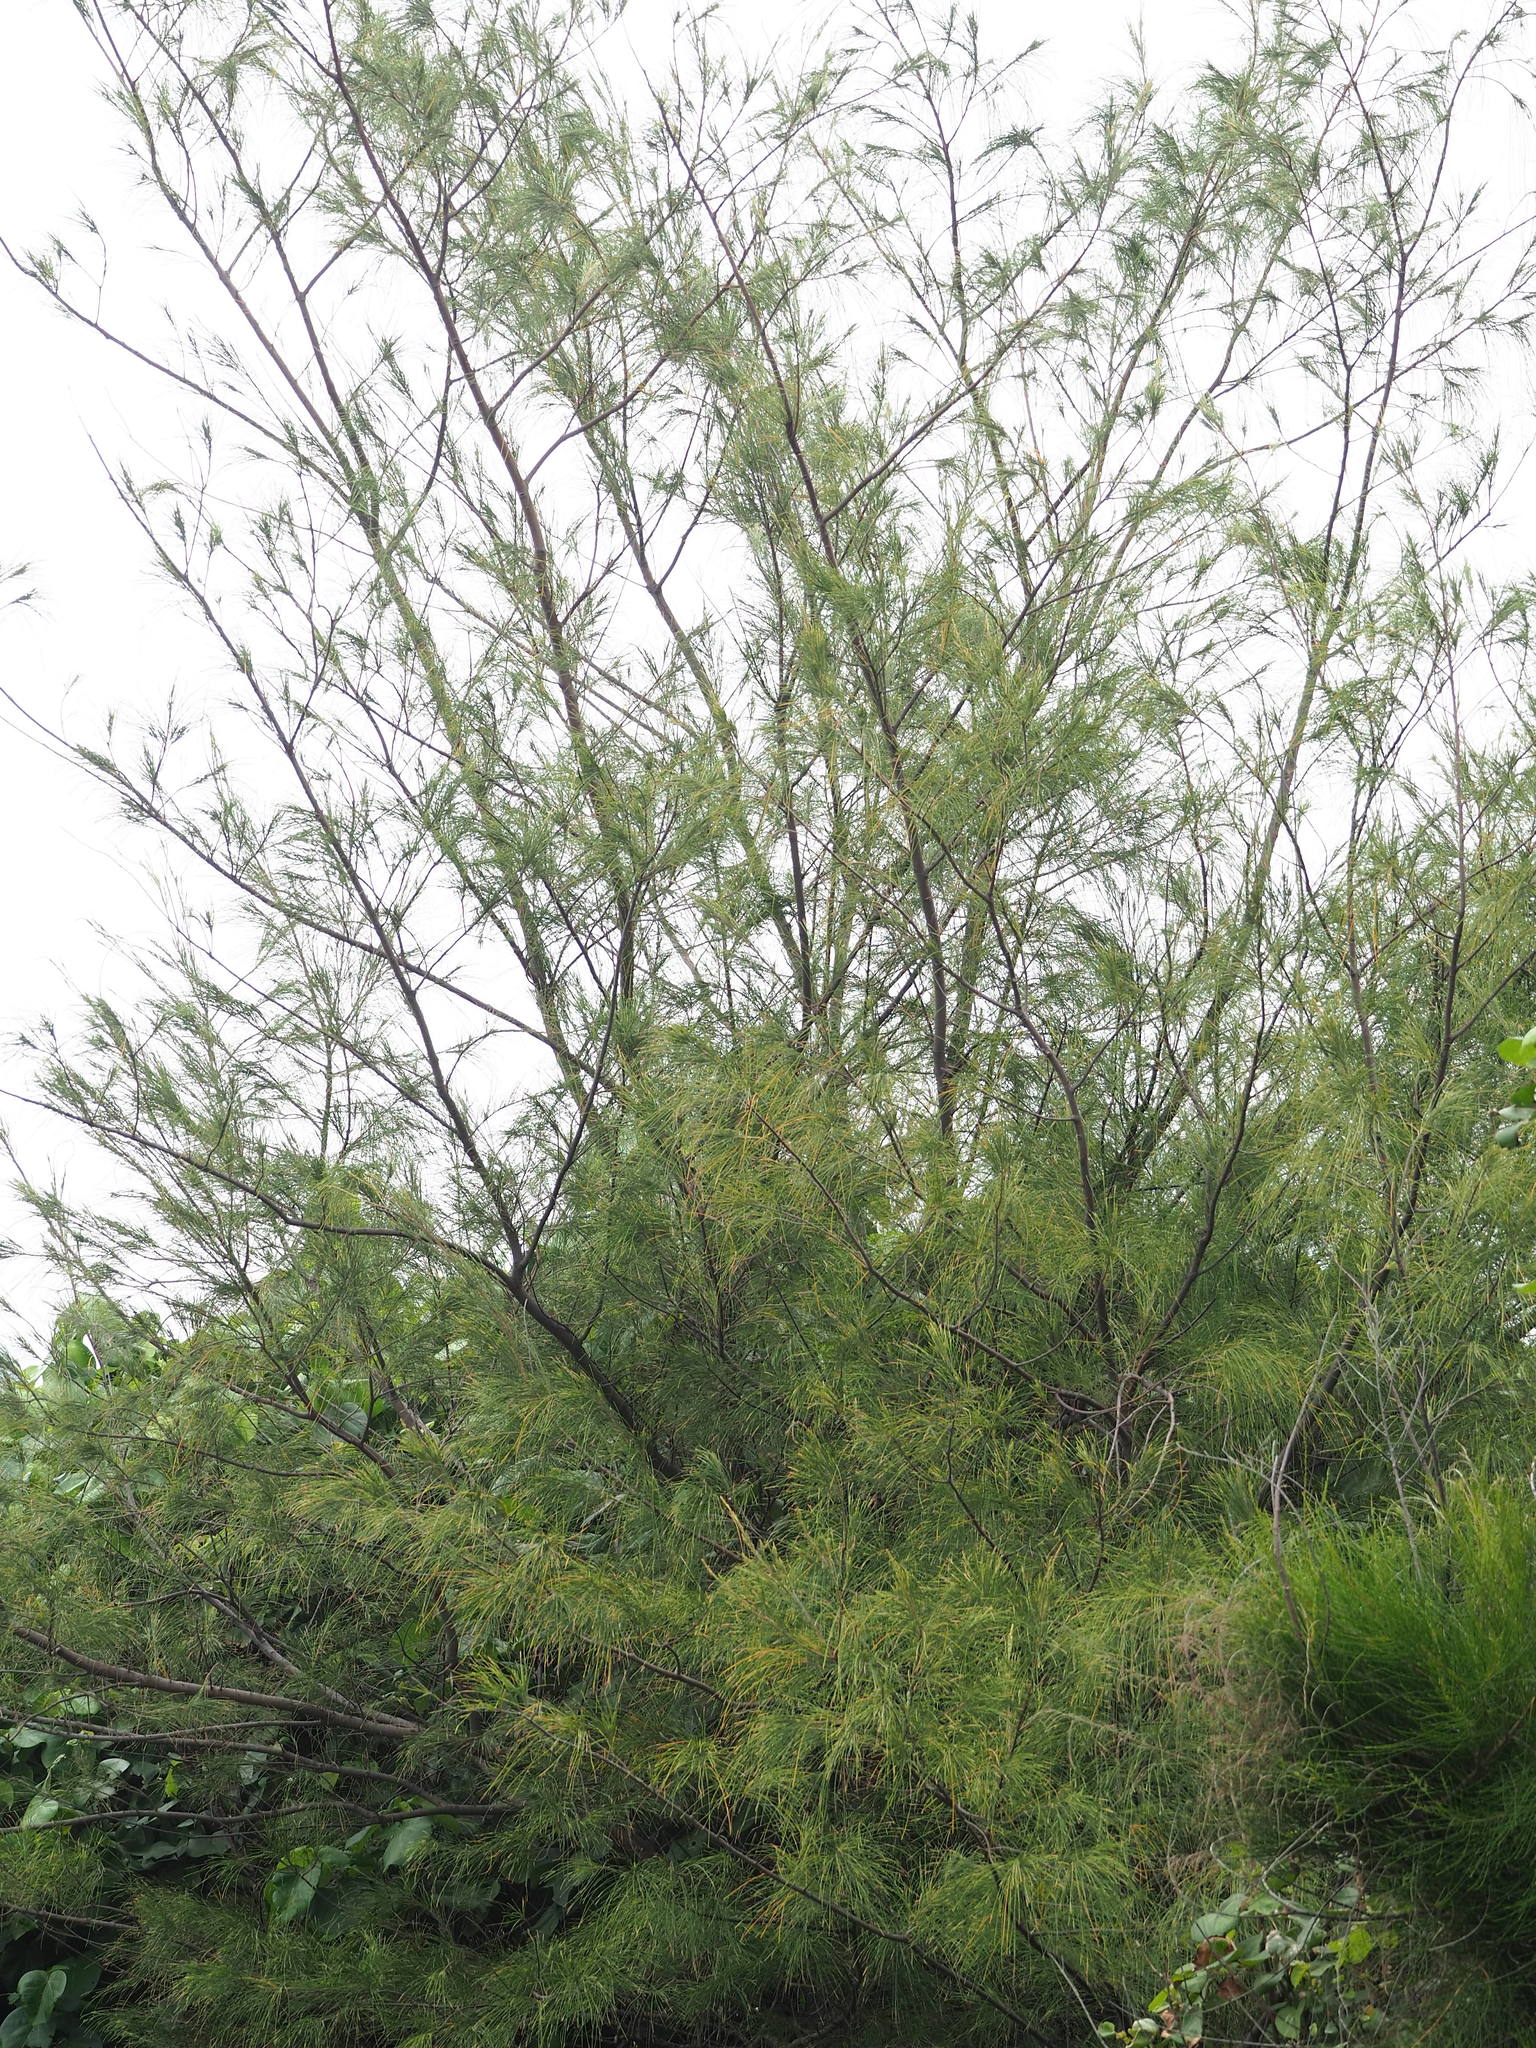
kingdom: Plantae
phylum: Tracheophyta
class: Magnoliopsida
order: Fagales
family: Casuarinaceae
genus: Casuarina
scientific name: Casuarina equisetifolia
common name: Beach sheoak
